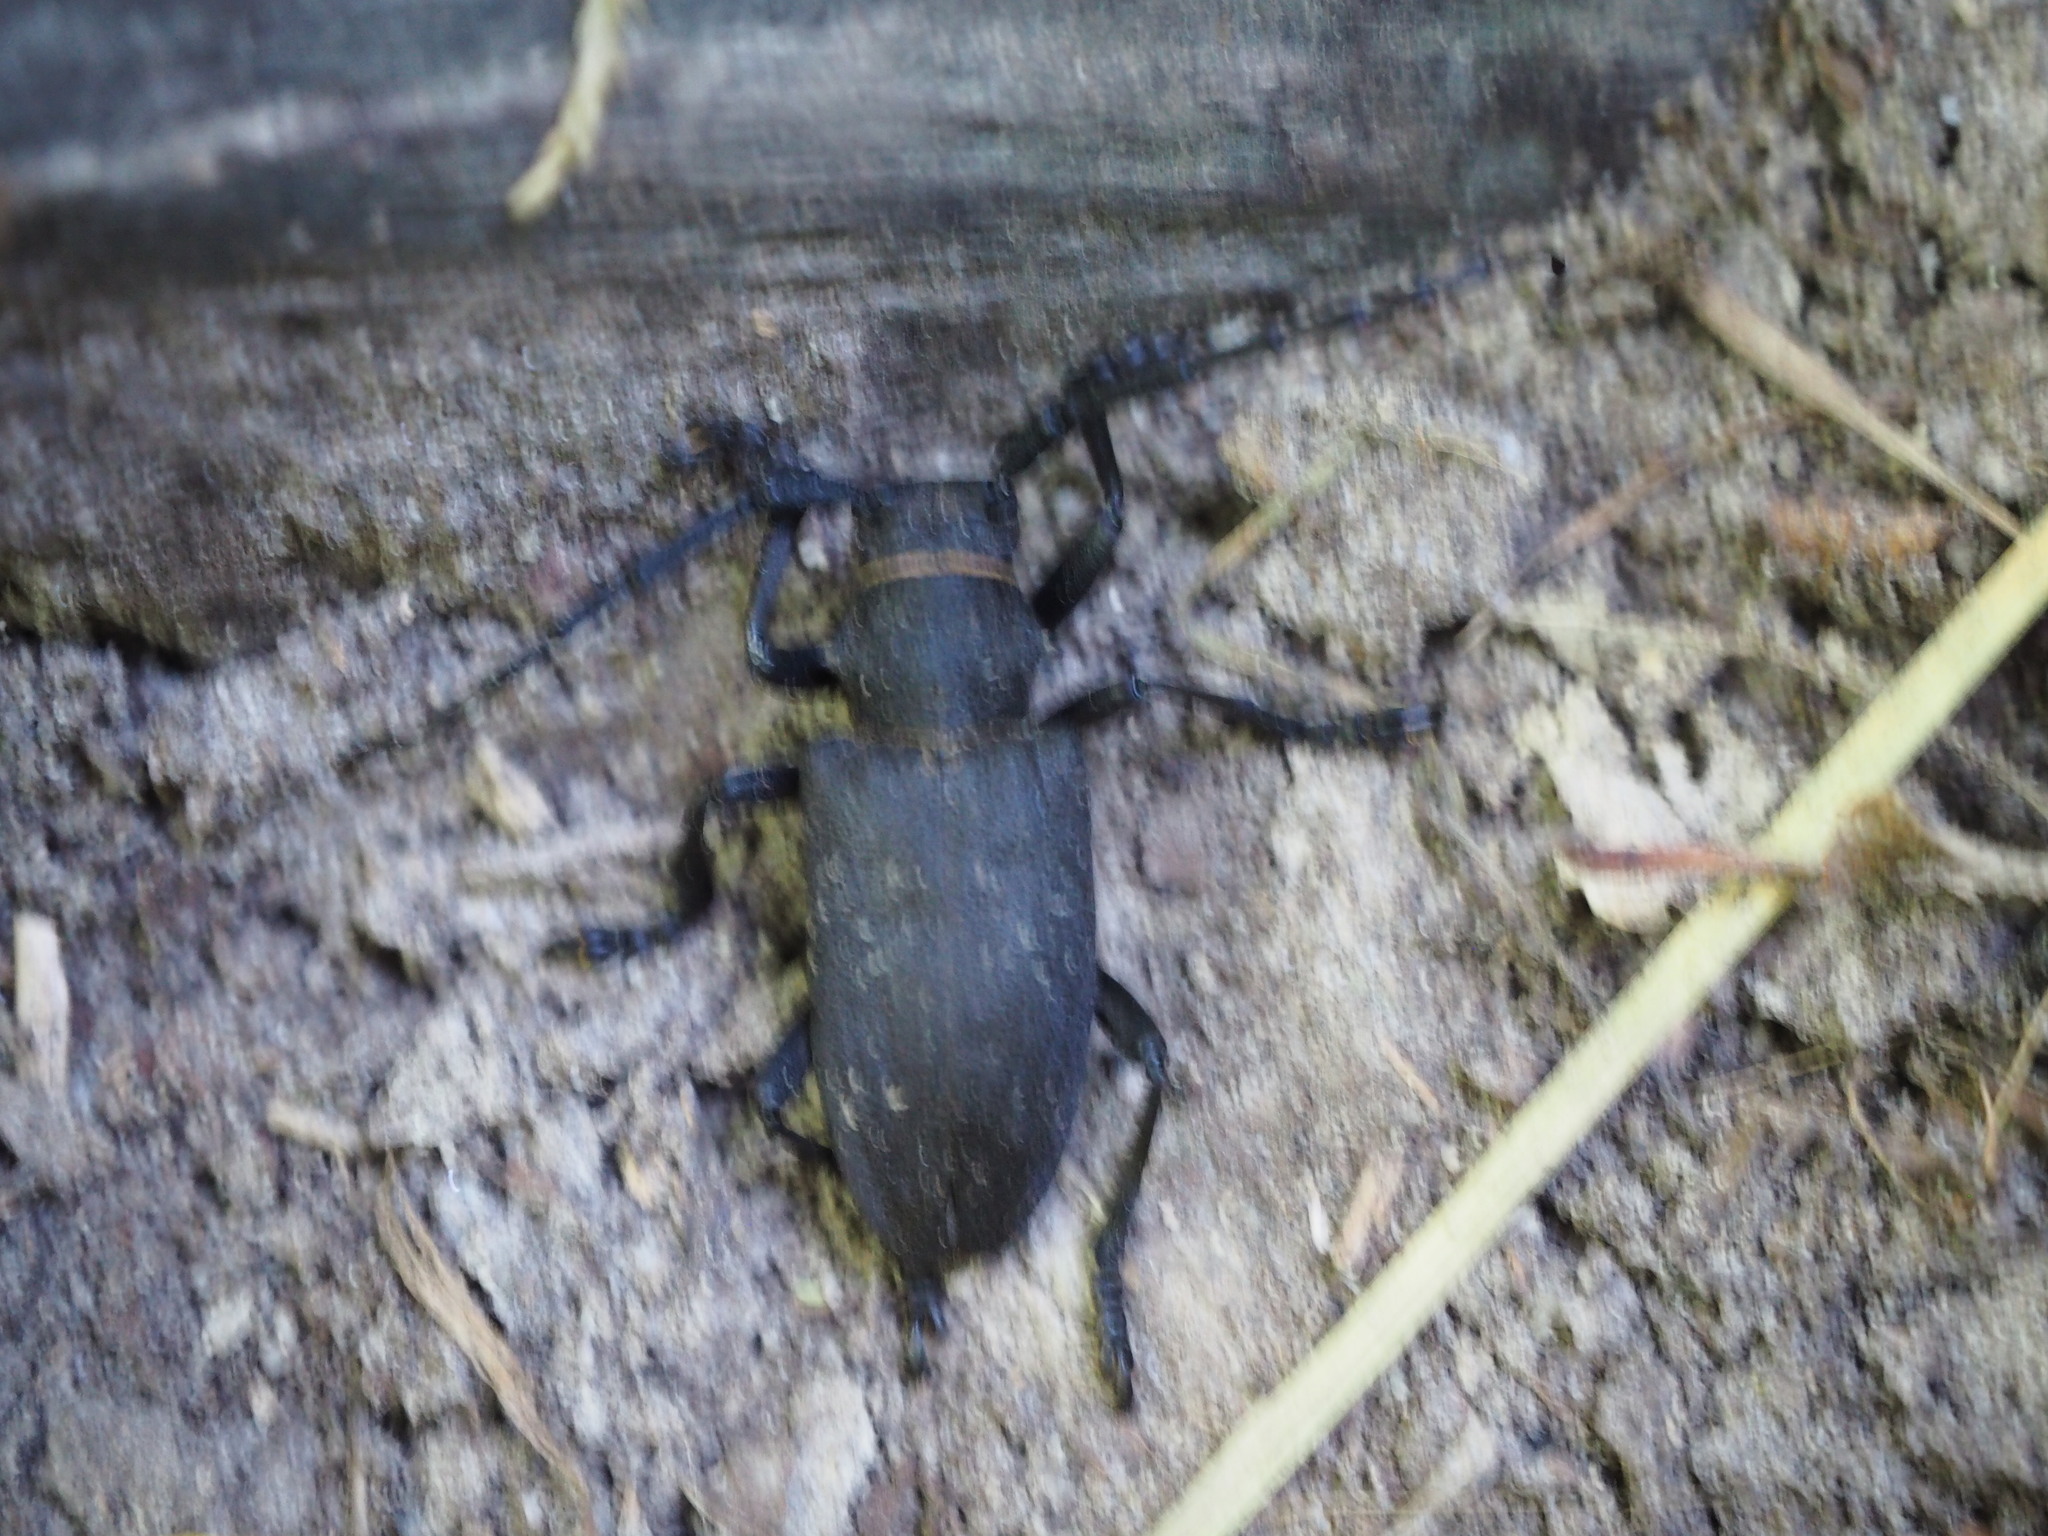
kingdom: Animalia
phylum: Arthropoda
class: Insecta
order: Coleoptera
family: Cerambycidae
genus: Lamia
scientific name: Lamia textor
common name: Weaver beetle
